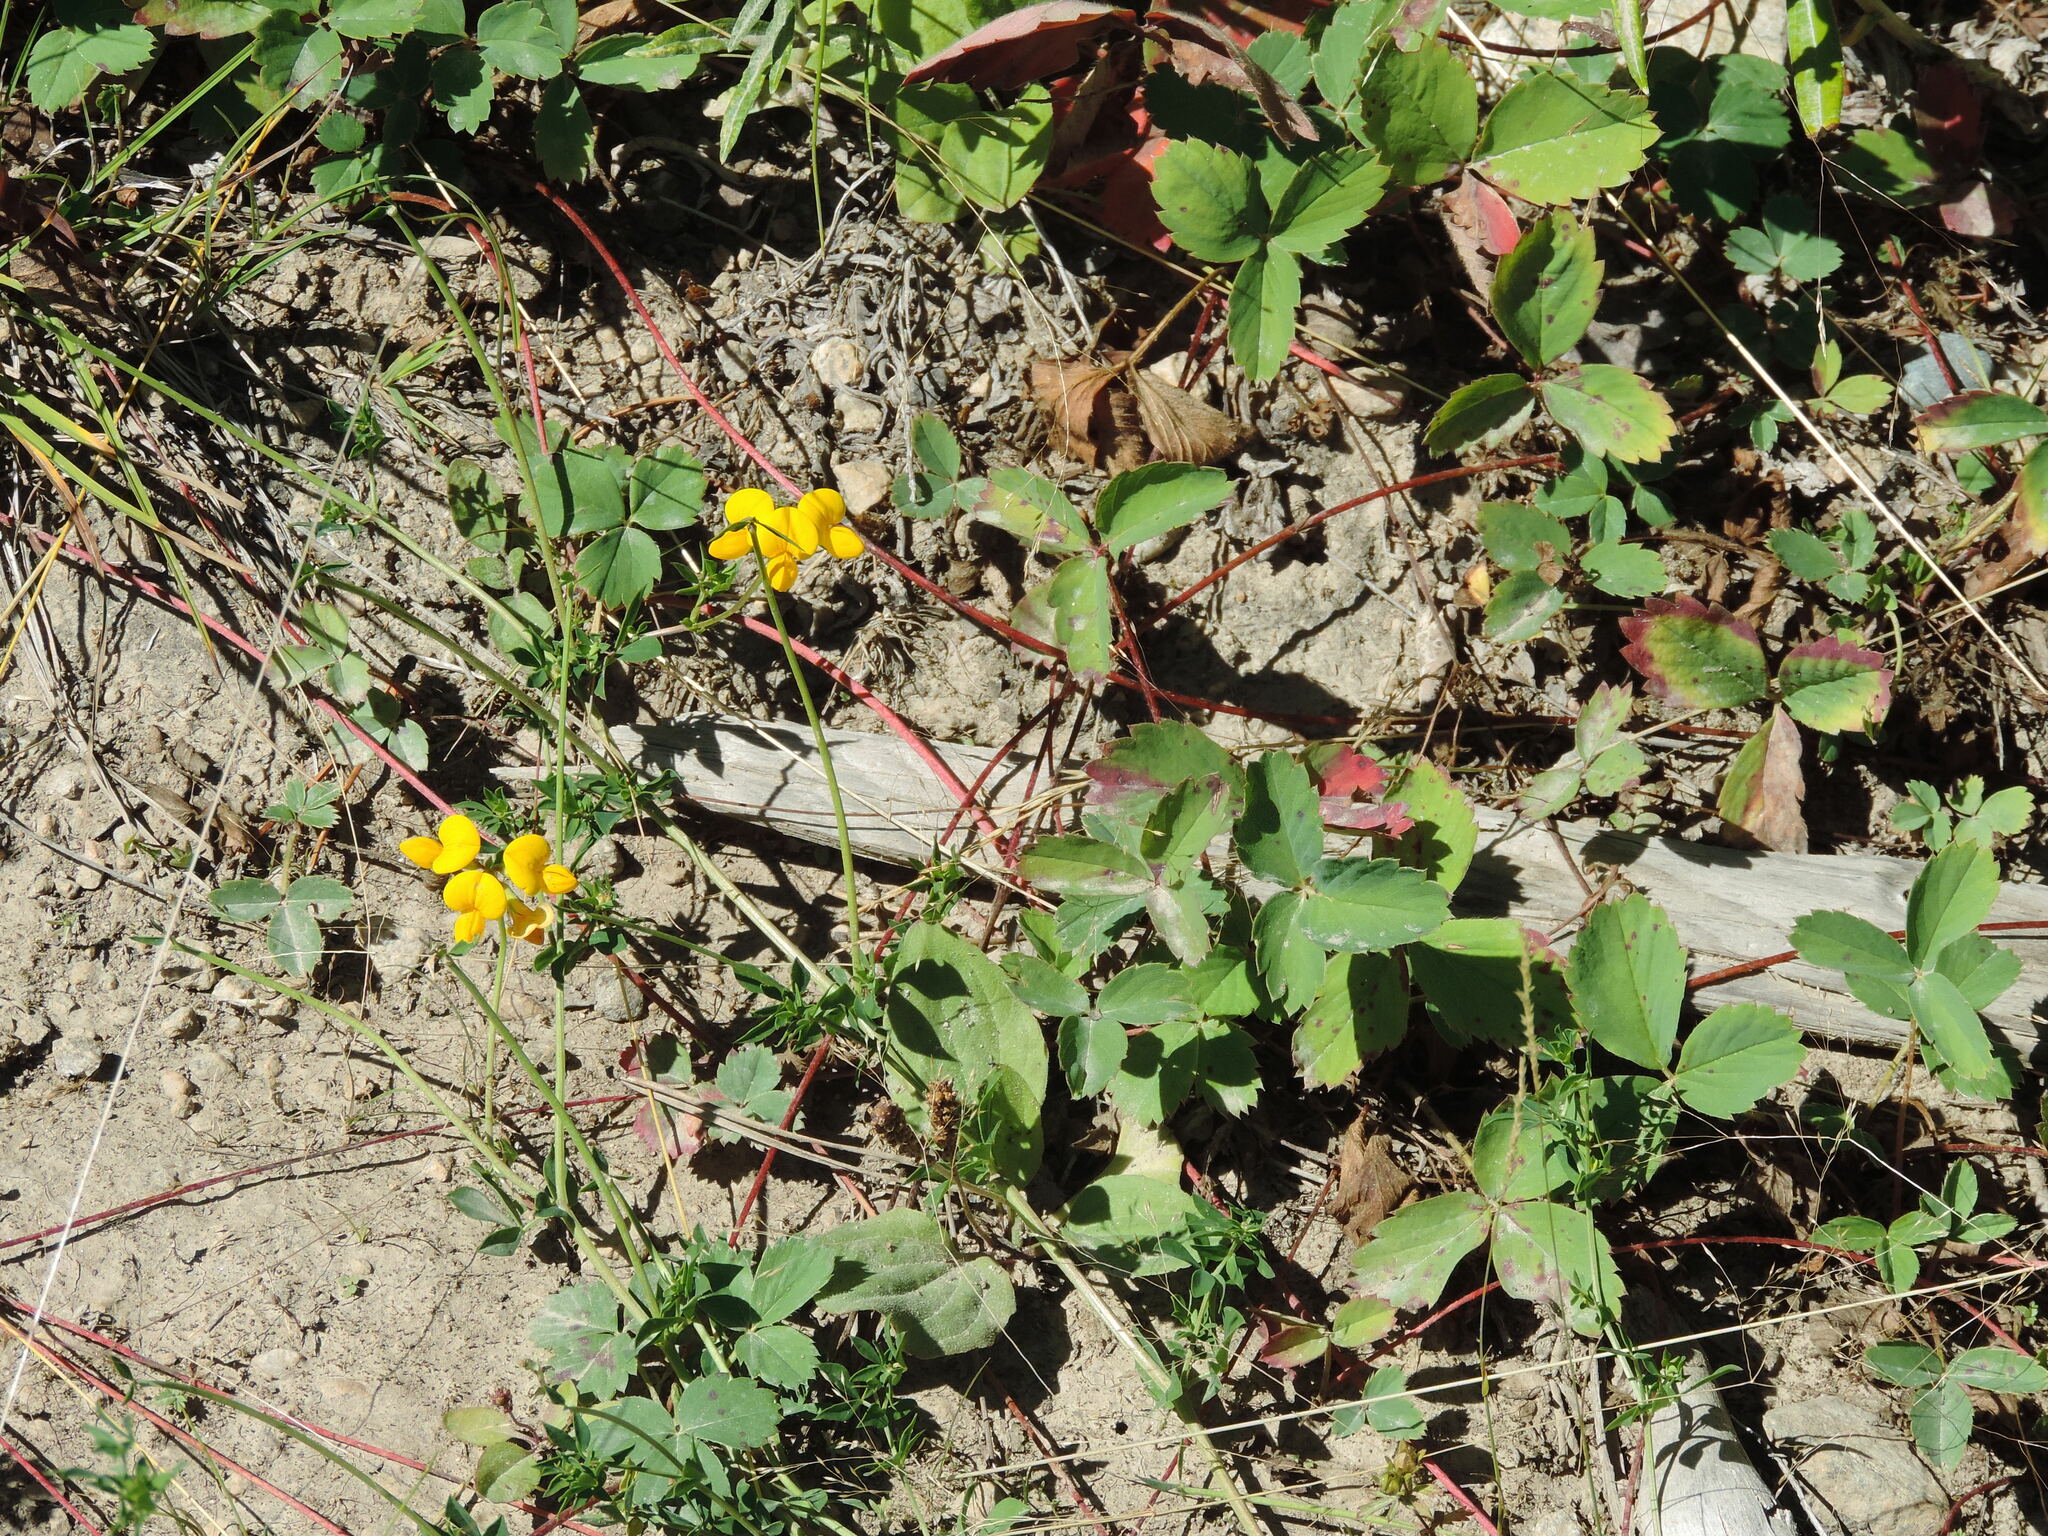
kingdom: Plantae
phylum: Tracheophyta
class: Magnoliopsida
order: Fabales
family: Fabaceae
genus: Lotus
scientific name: Lotus corniculatus
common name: Common bird's-foot-trefoil
